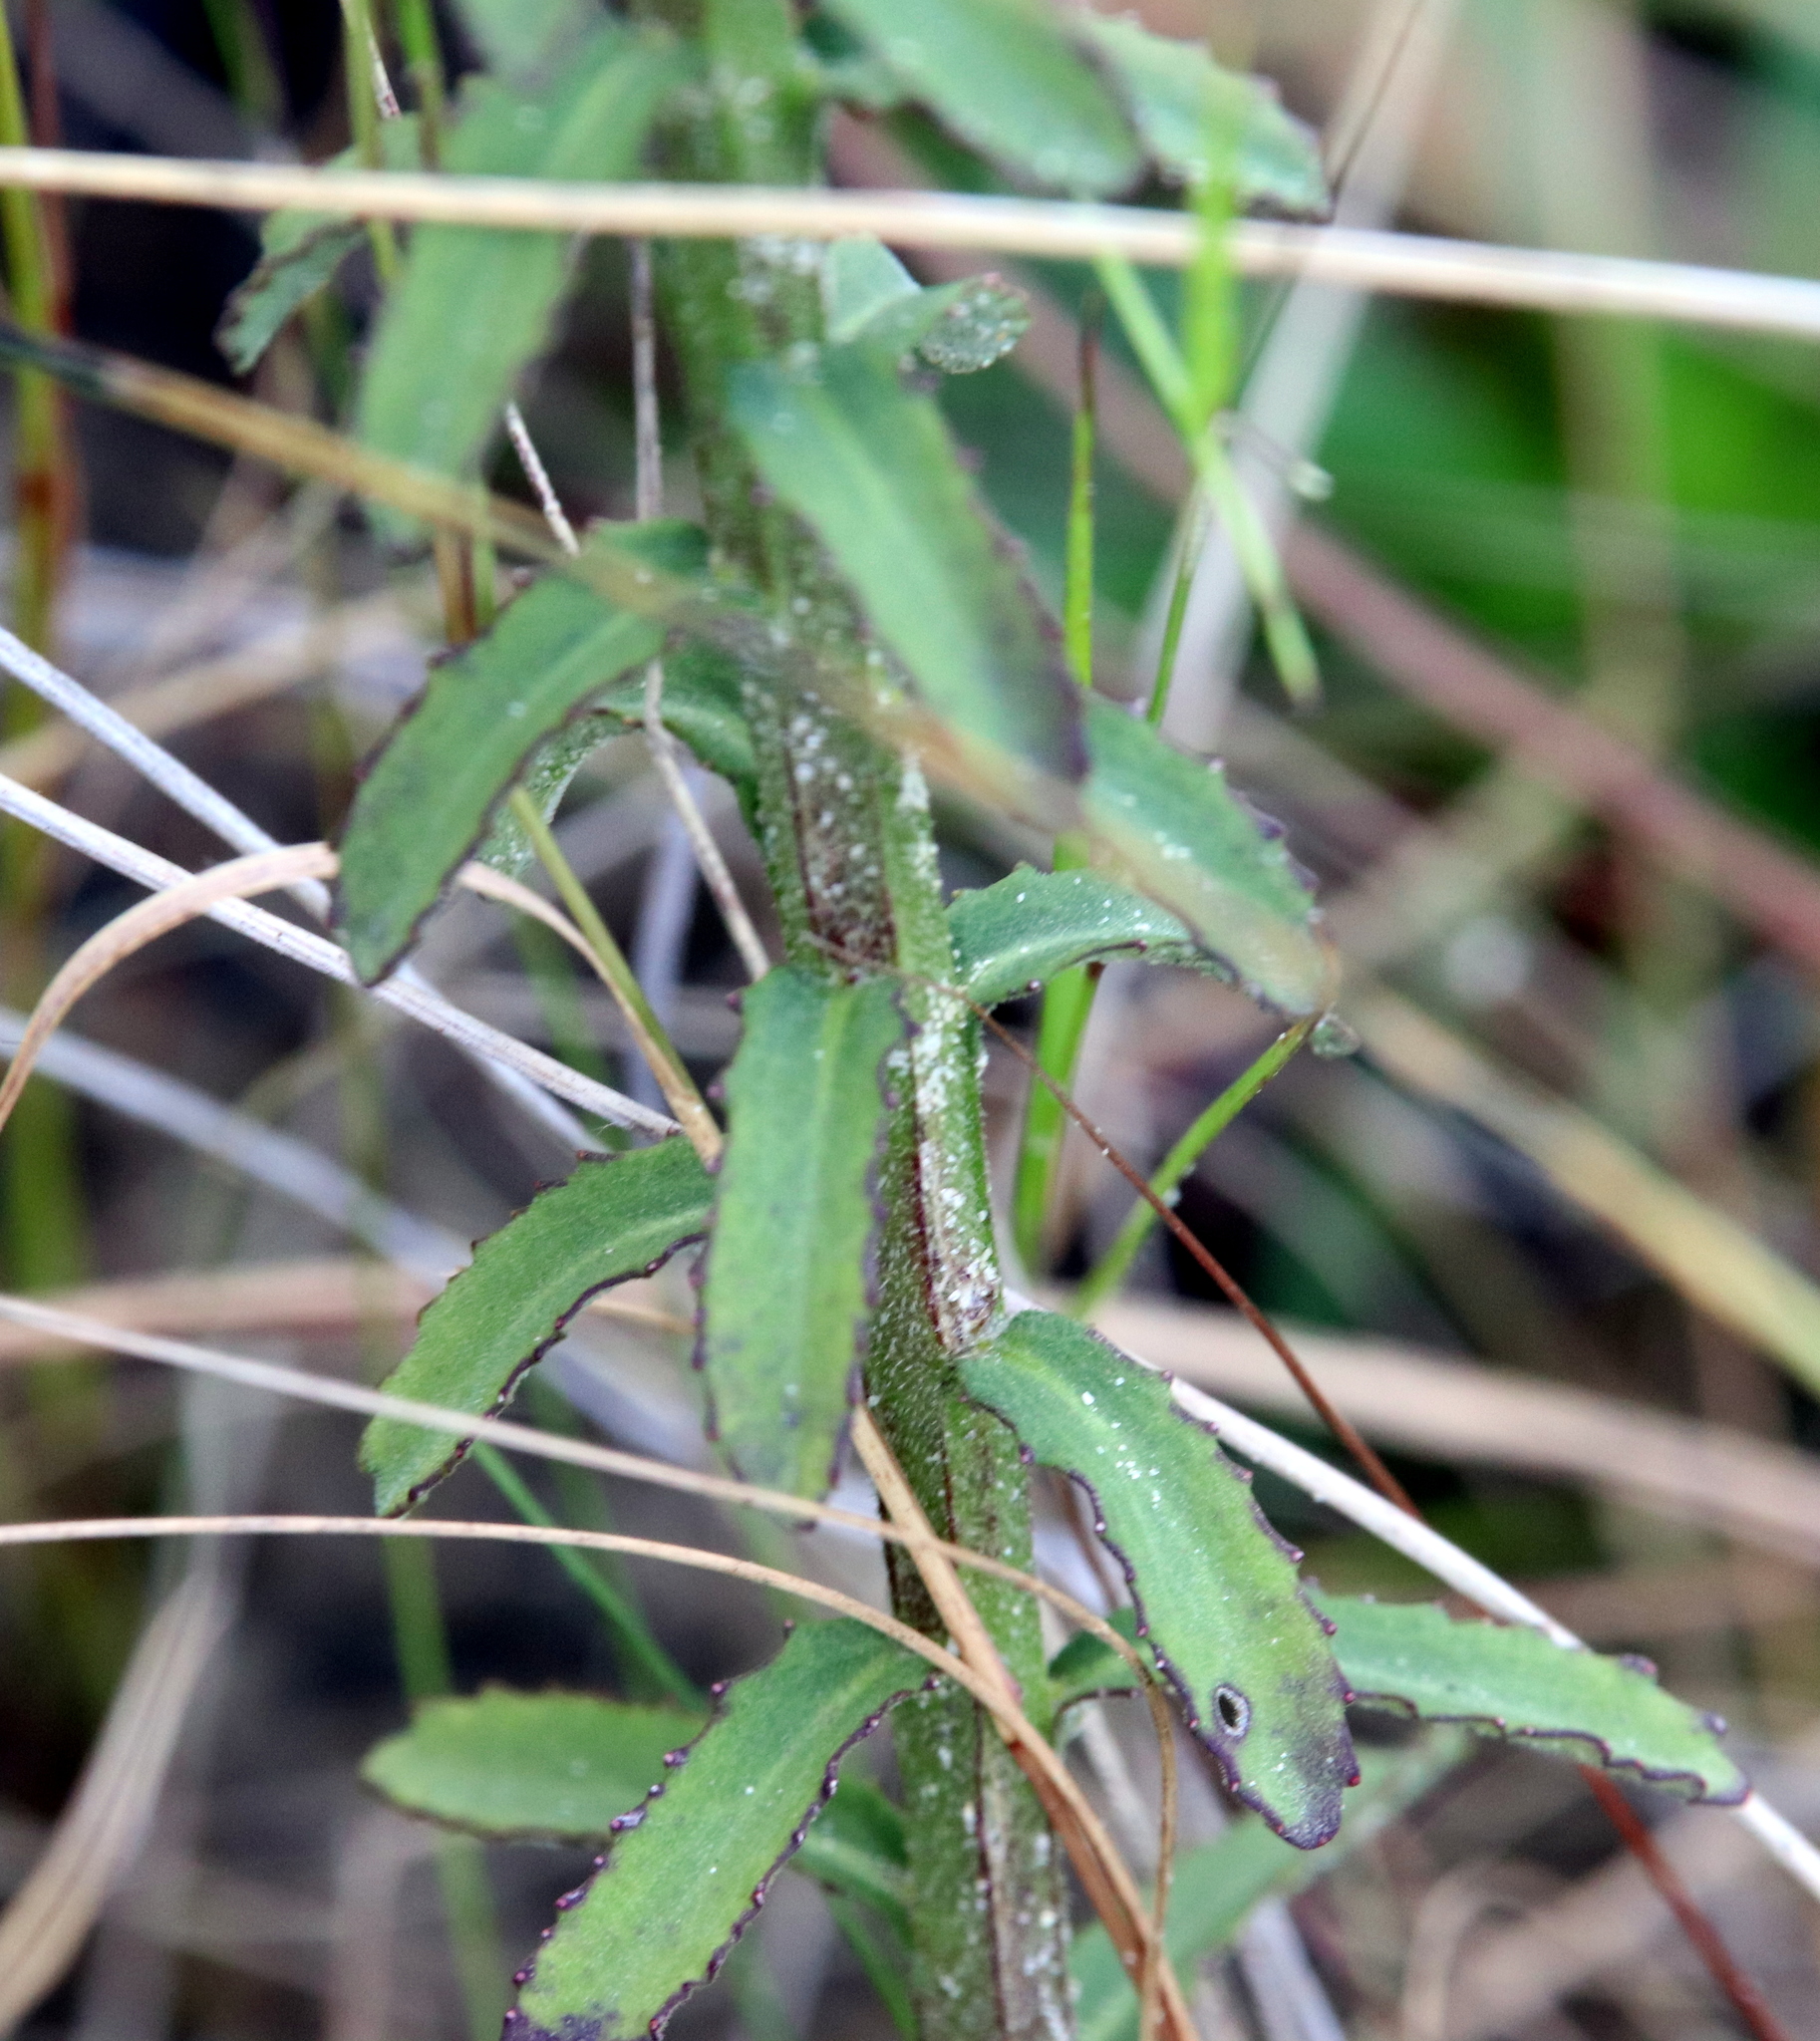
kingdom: Plantae
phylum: Tracheophyta
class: Magnoliopsida
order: Asterales
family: Campanulaceae
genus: Lobelia
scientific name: Lobelia brevifolia
